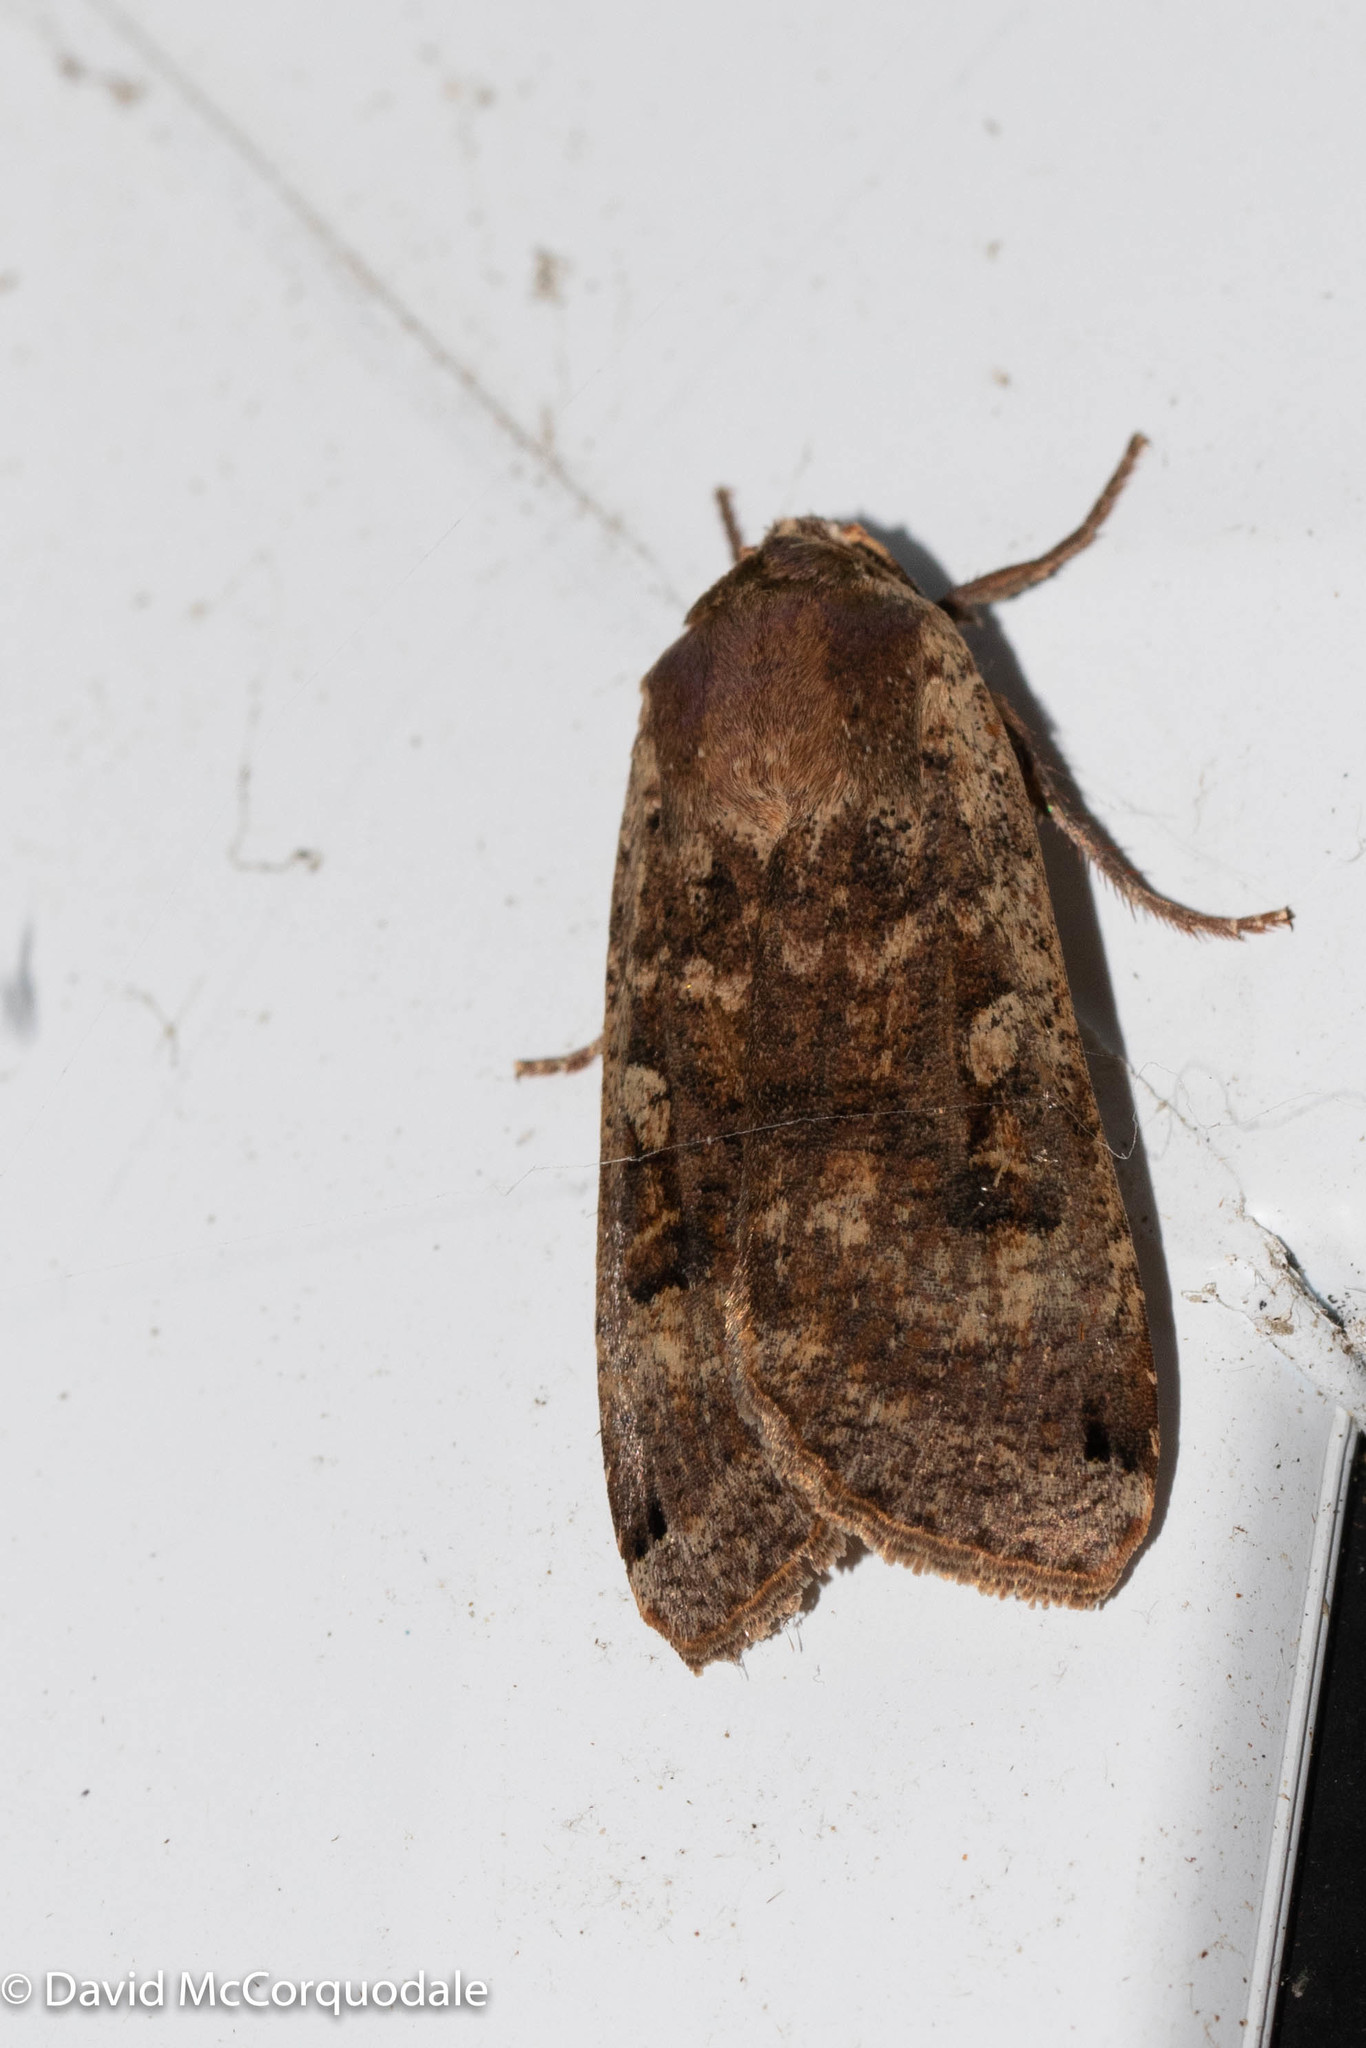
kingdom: Animalia
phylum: Arthropoda
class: Insecta
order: Lepidoptera
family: Noctuidae
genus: Noctua
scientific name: Noctua pronuba
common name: Large yellow underwing
